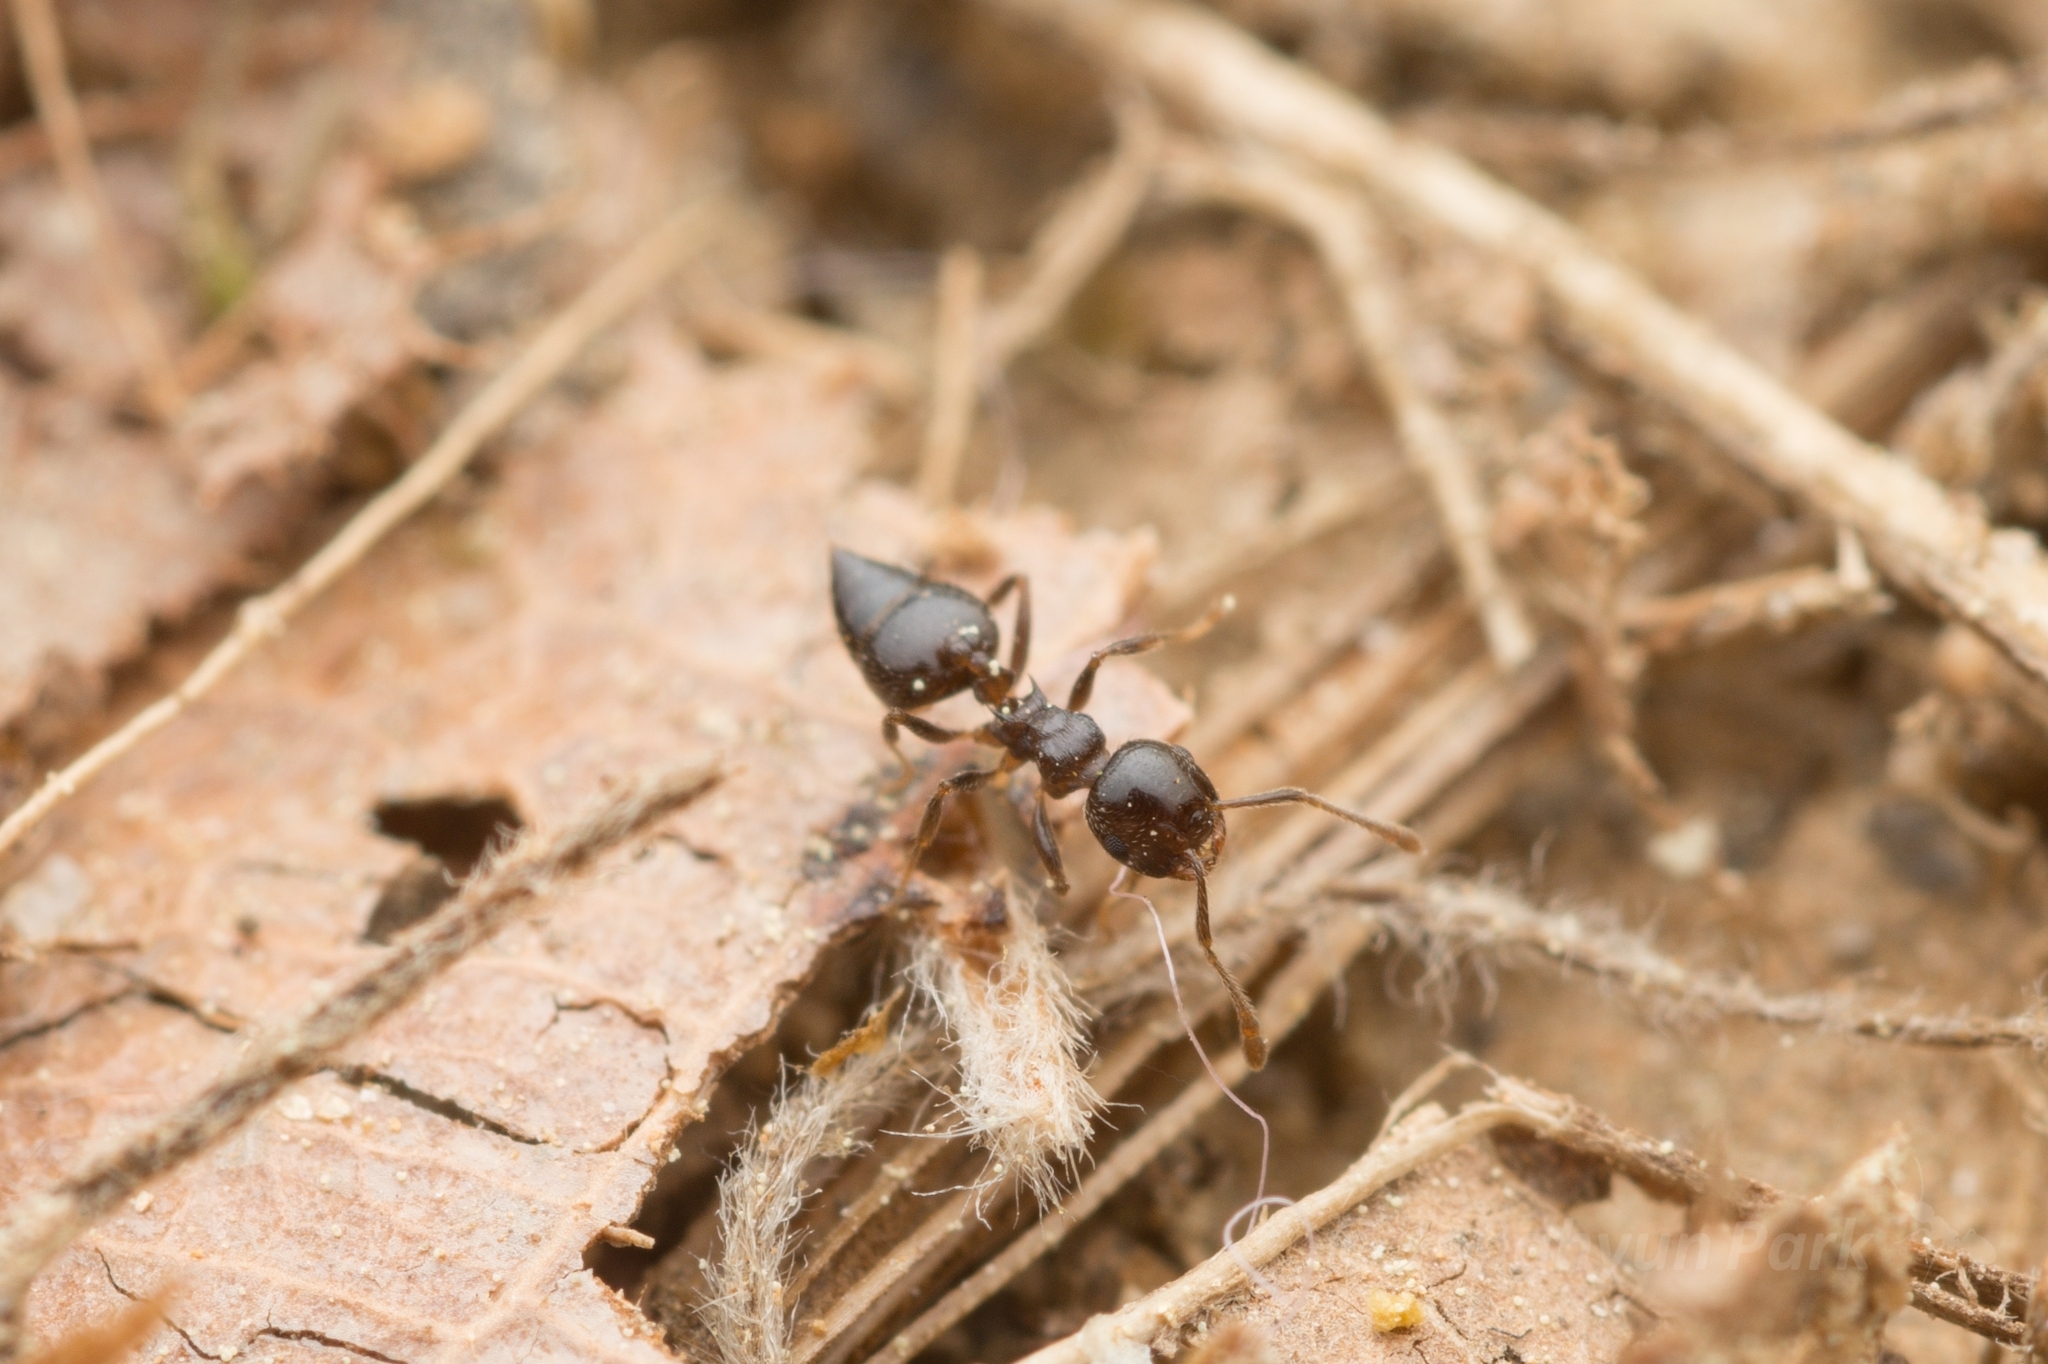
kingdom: Animalia
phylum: Arthropoda
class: Insecta
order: Hymenoptera
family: Formicidae
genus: Crematogaster
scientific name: Crematogaster teranishii
